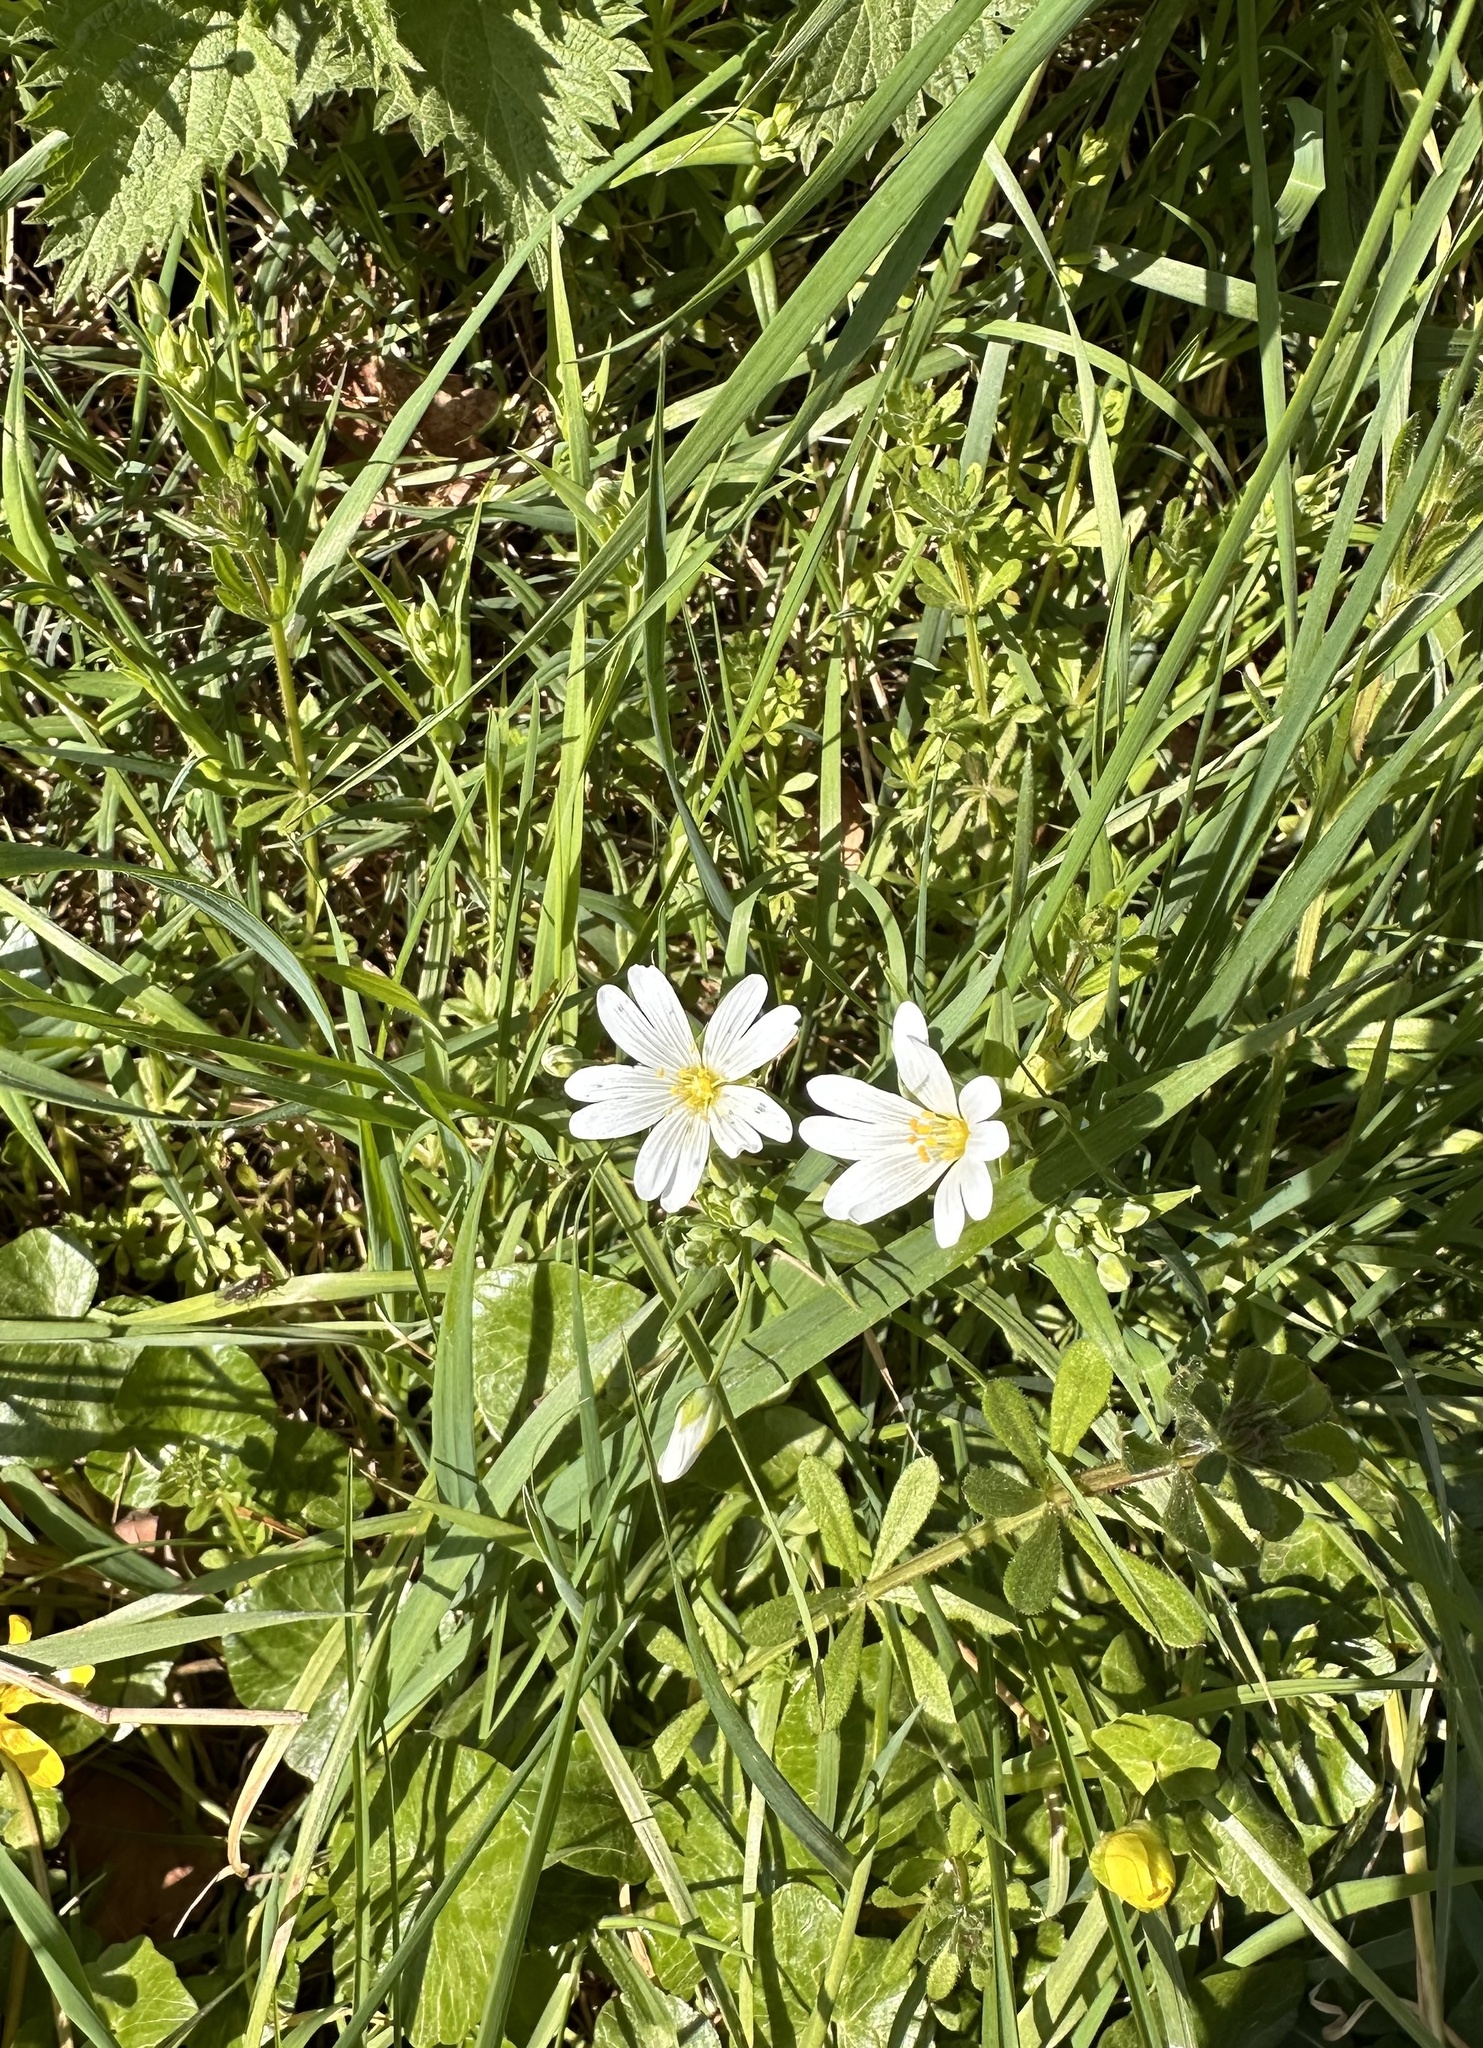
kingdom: Plantae
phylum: Tracheophyta
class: Magnoliopsida
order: Caryophyllales
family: Caryophyllaceae
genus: Rabelera
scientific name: Rabelera holostea
